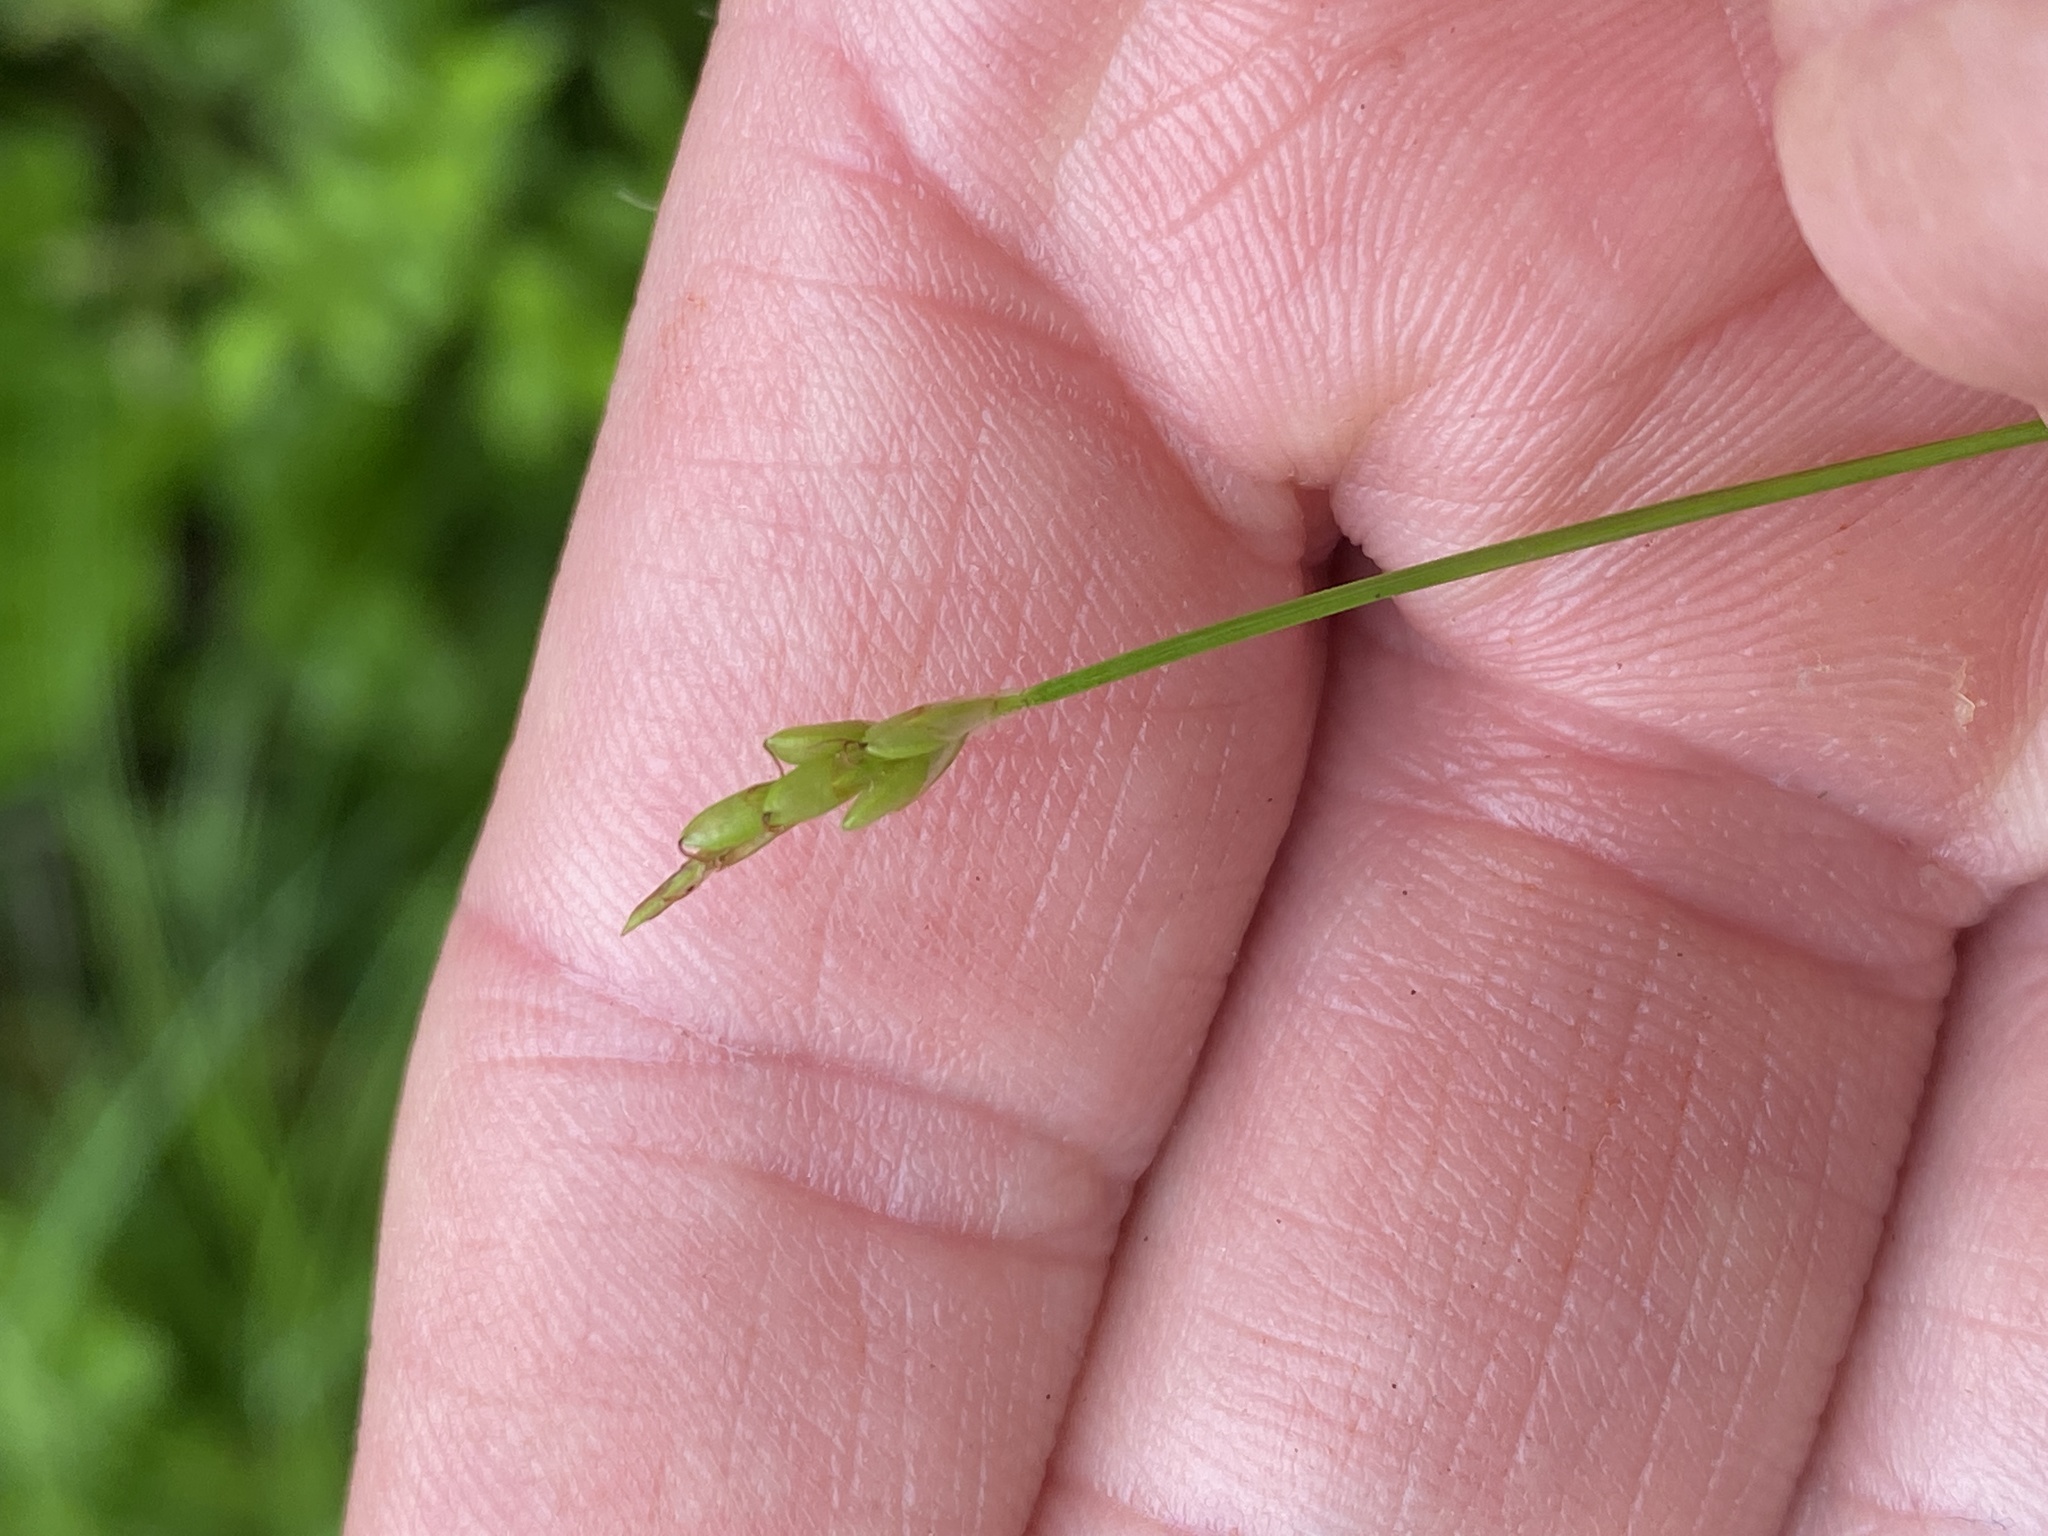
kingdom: Plantae
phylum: Tracheophyta
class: Liliopsida
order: Poales
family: Cyperaceae
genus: Carex
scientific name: Carex leptalea
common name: Bristly-stalked sedge
